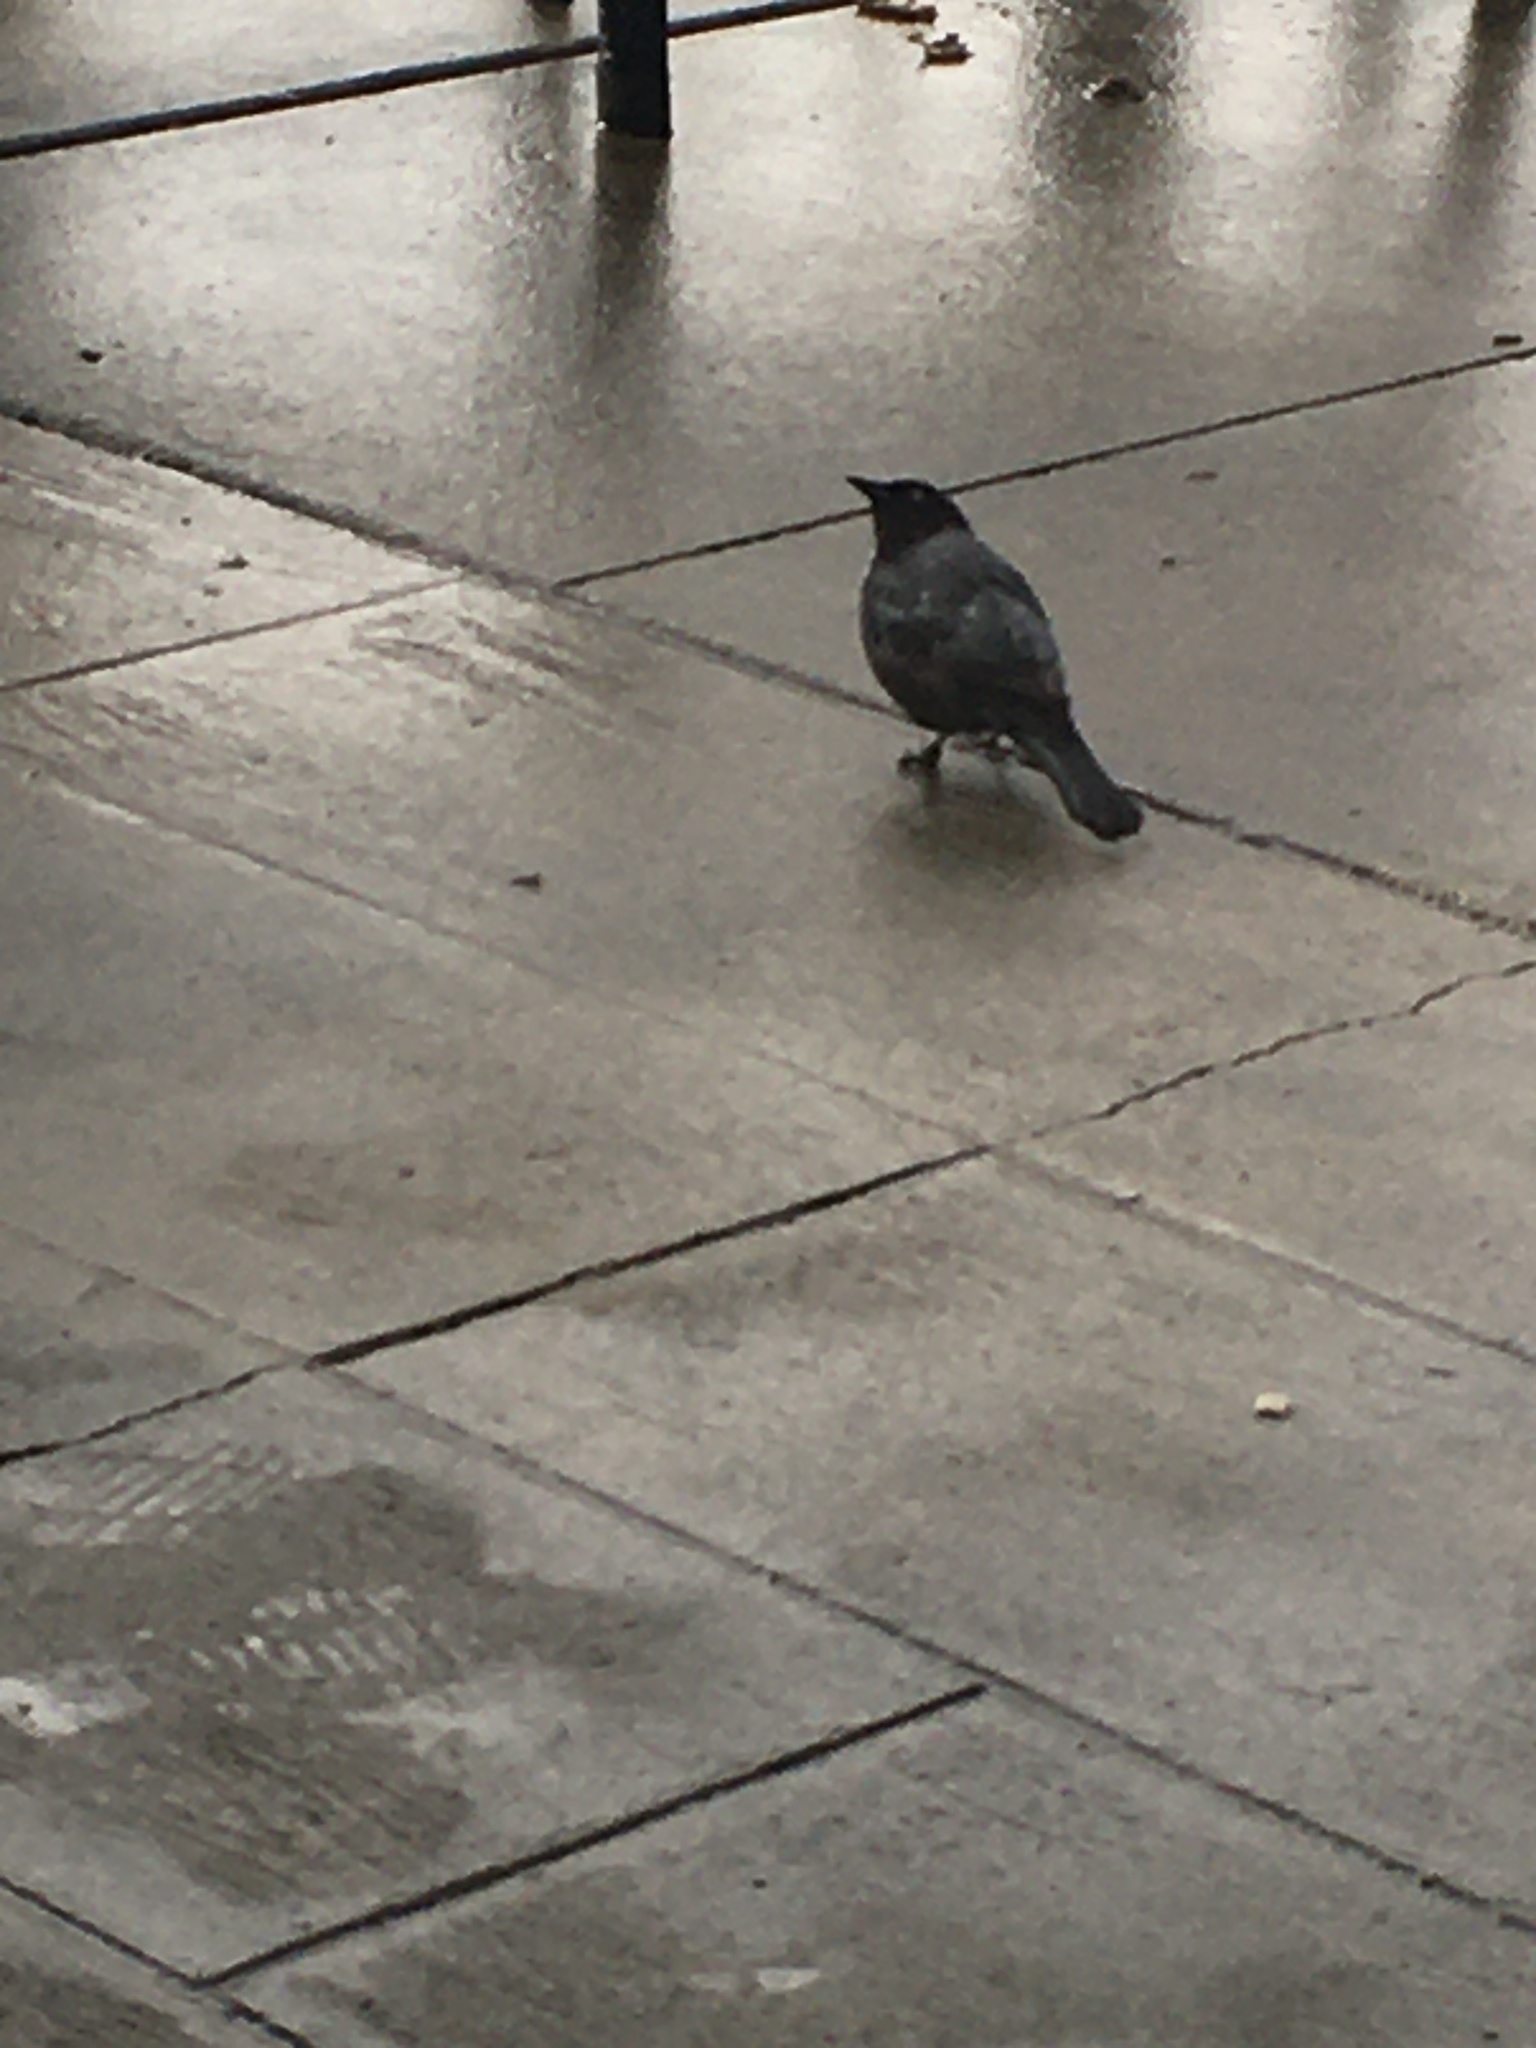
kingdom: Animalia
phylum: Chordata
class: Aves
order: Passeriformes
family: Icteridae
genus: Euphagus
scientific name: Euphagus cyanocephalus
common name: Brewer's blackbird
